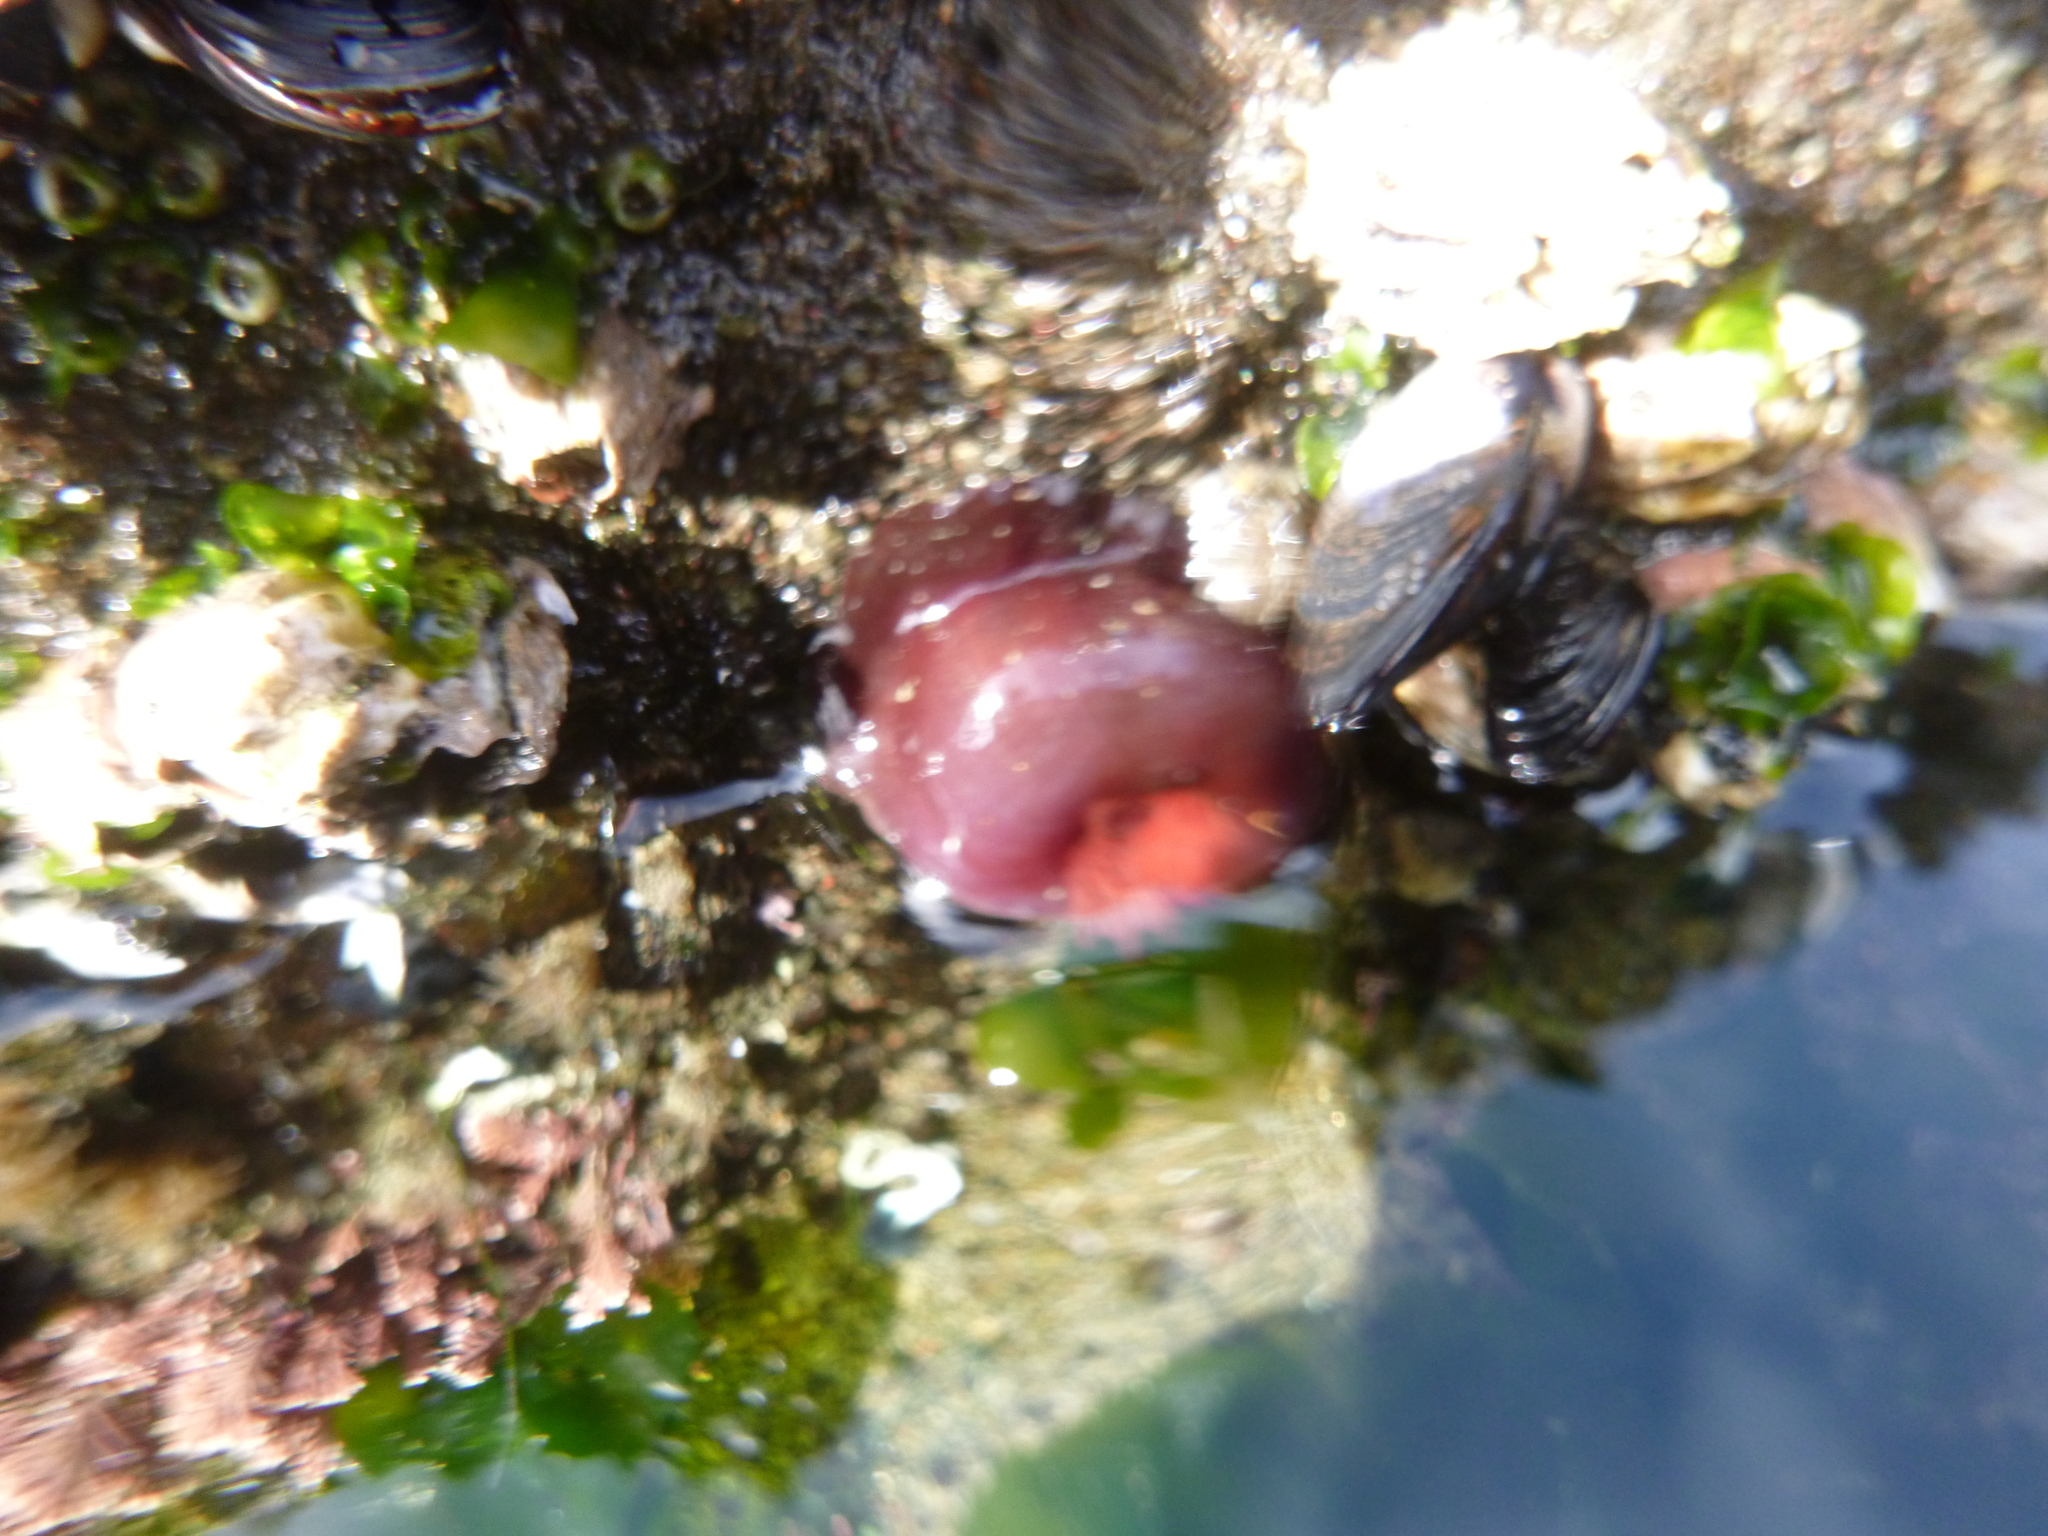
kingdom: Animalia
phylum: Cnidaria
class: Anthozoa
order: Actiniaria
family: Actiniidae
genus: Actinia
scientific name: Actinia tenebrosa
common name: Waratah anemone
